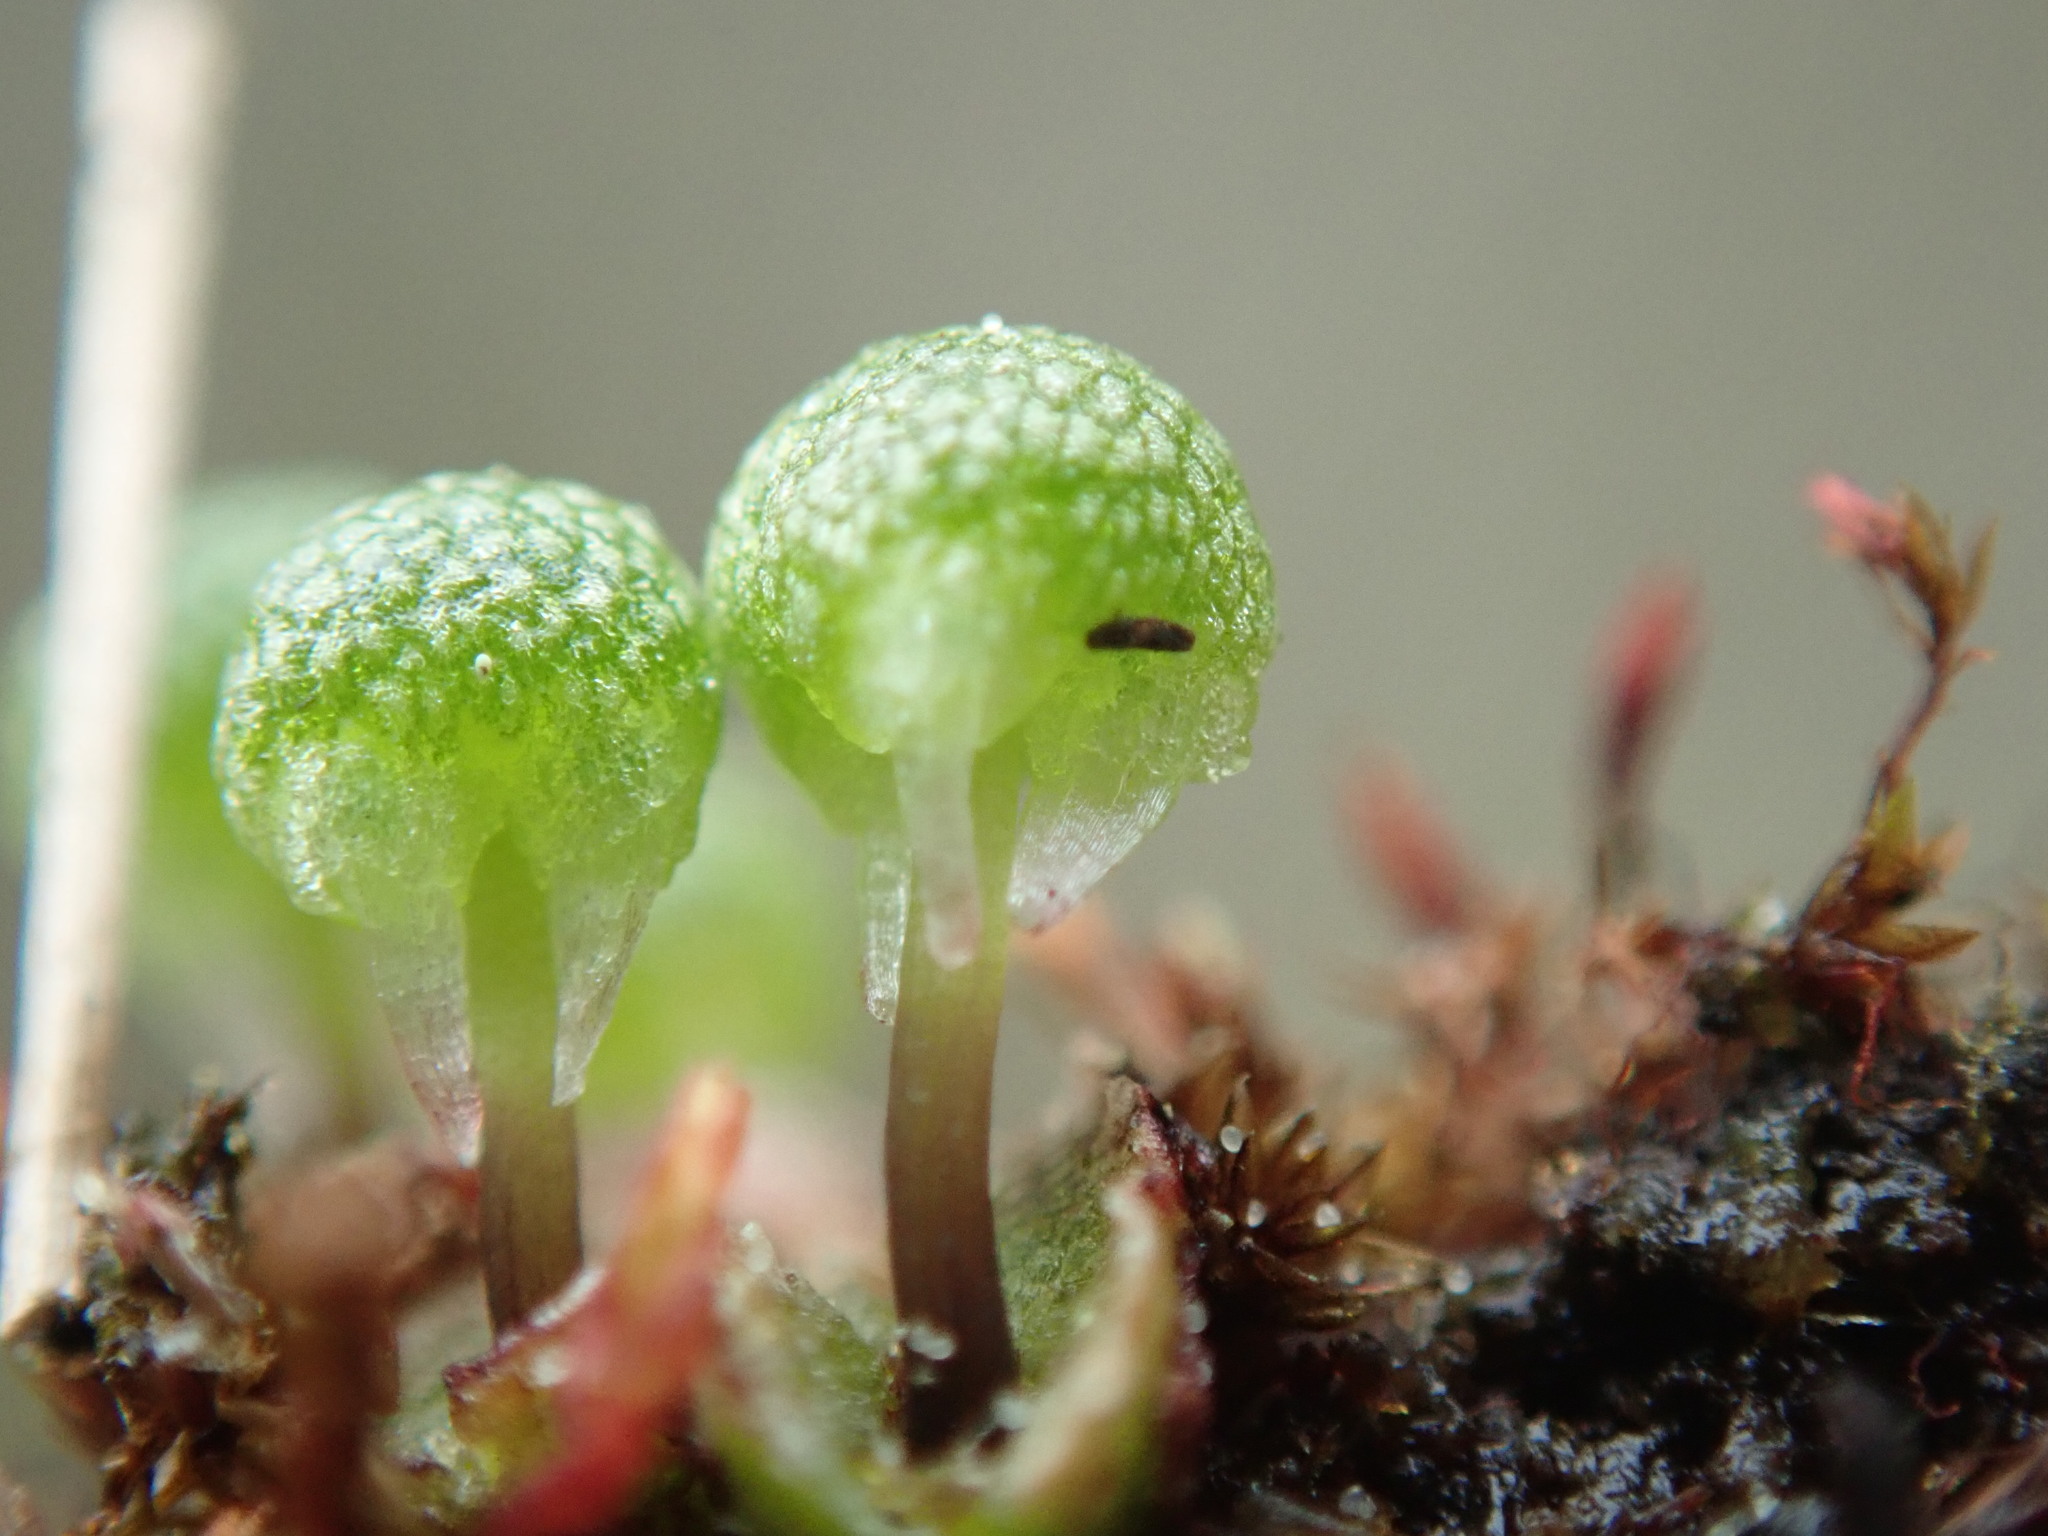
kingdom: Plantae
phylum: Marchantiophyta
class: Marchantiopsida
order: Marchantiales
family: Aytoniaceae
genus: Mannia
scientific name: Mannia gracilis
